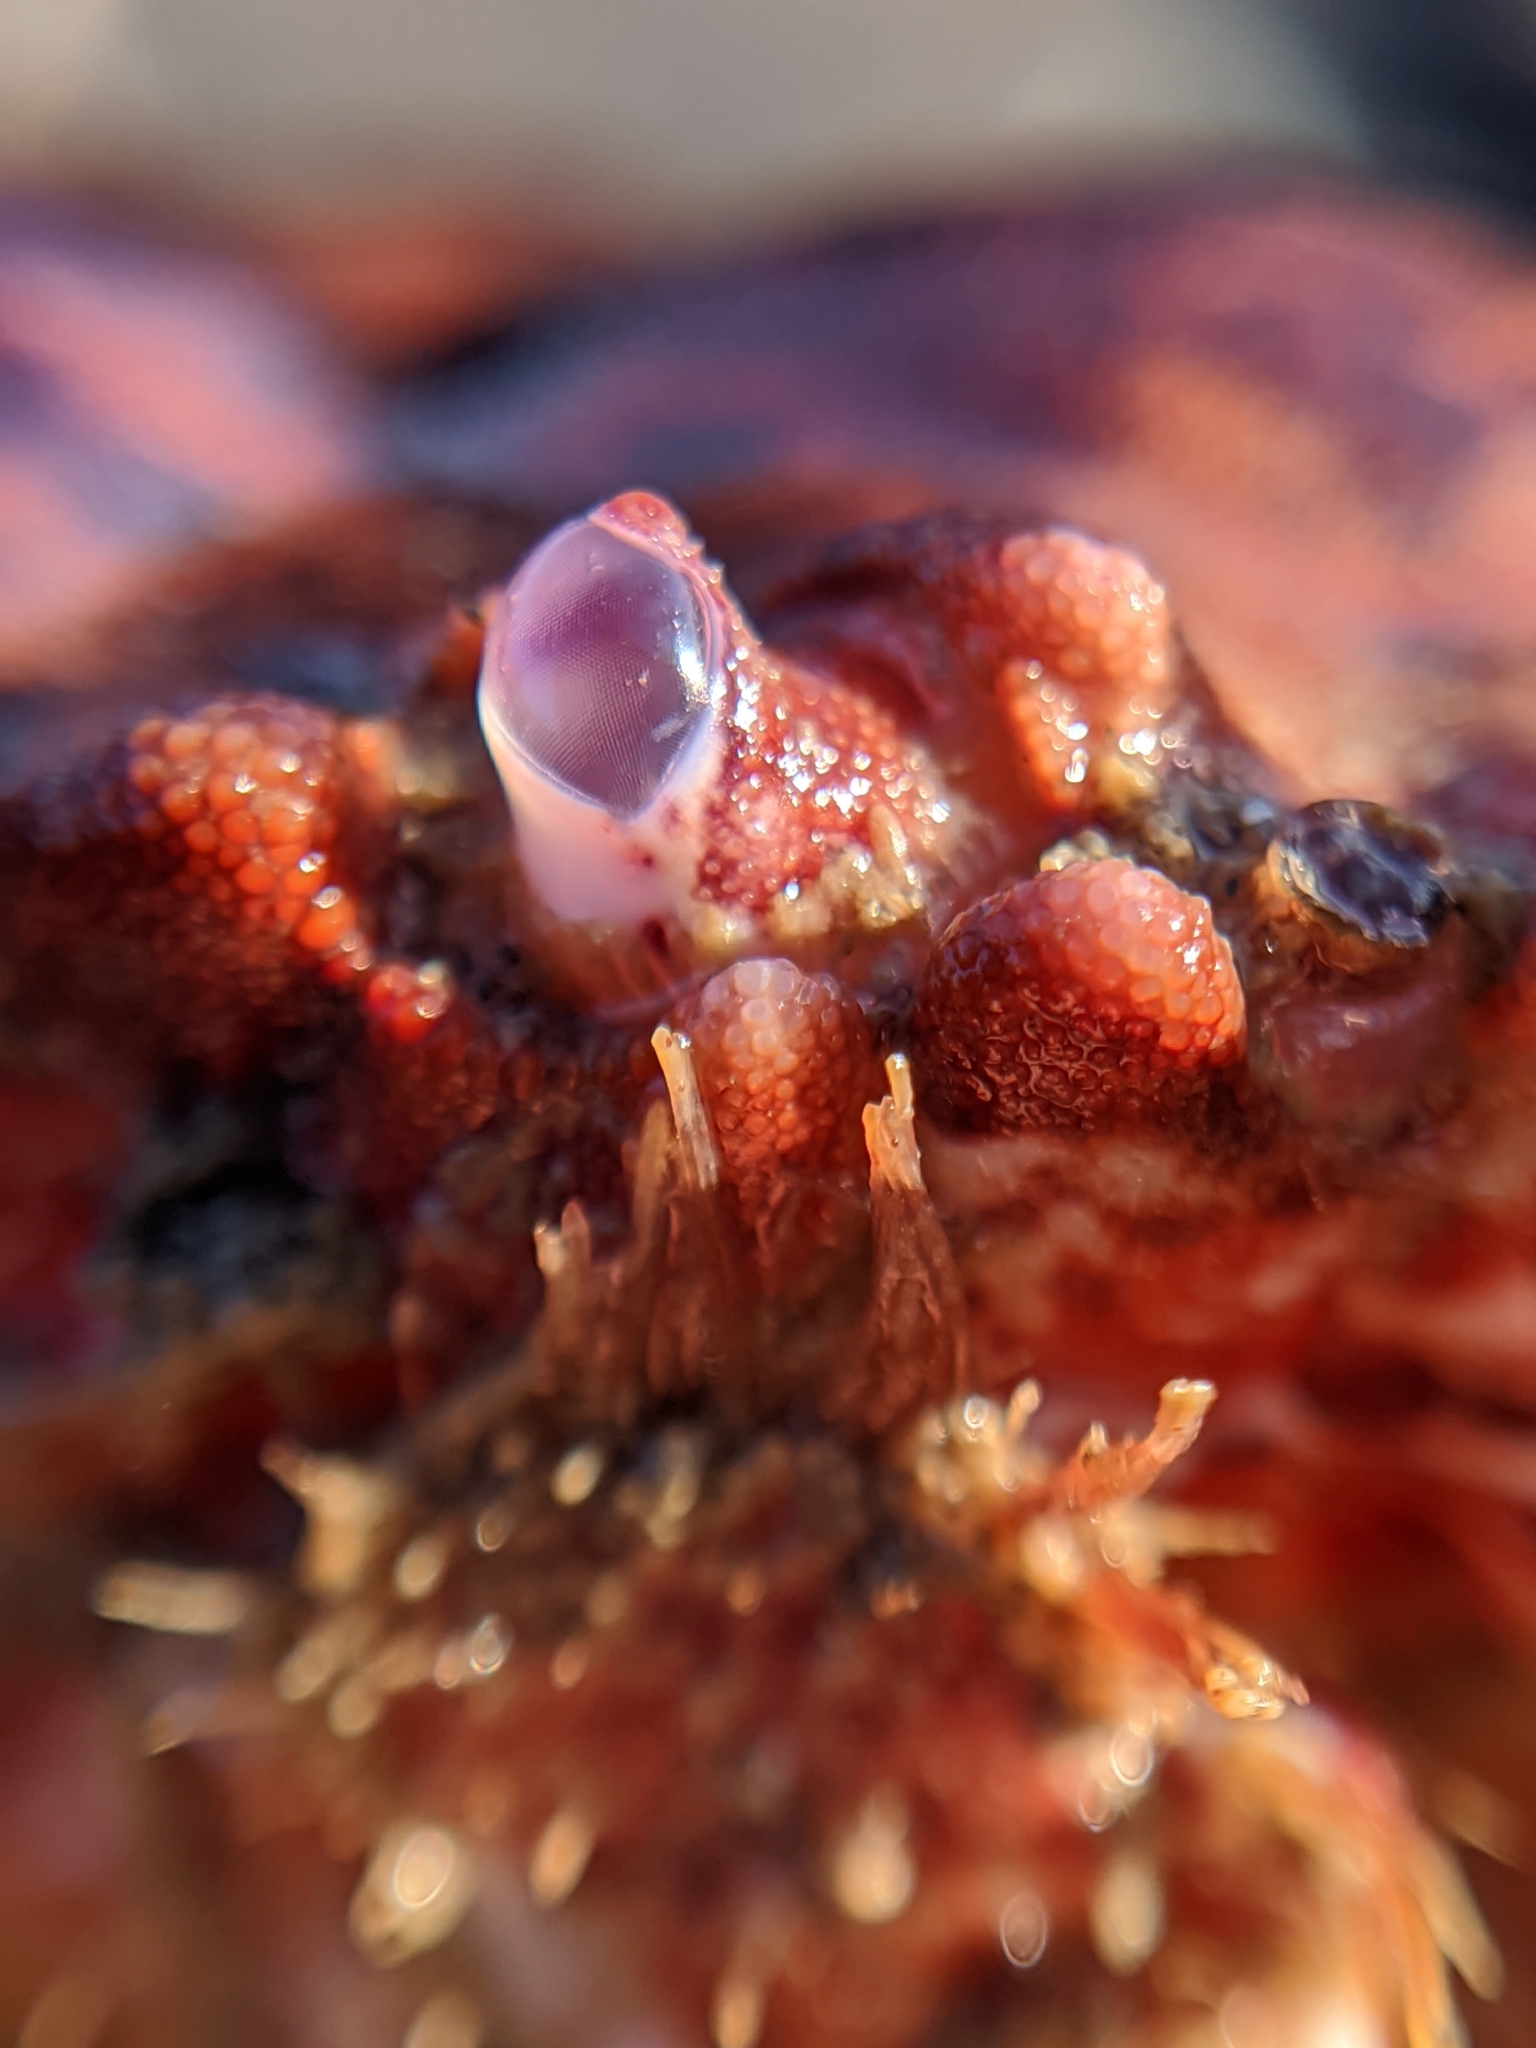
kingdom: Animalia
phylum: Arthropoda
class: Malacostraca
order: Decapoda
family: Cancridae
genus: Romaleon
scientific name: Romaleon antennarium
